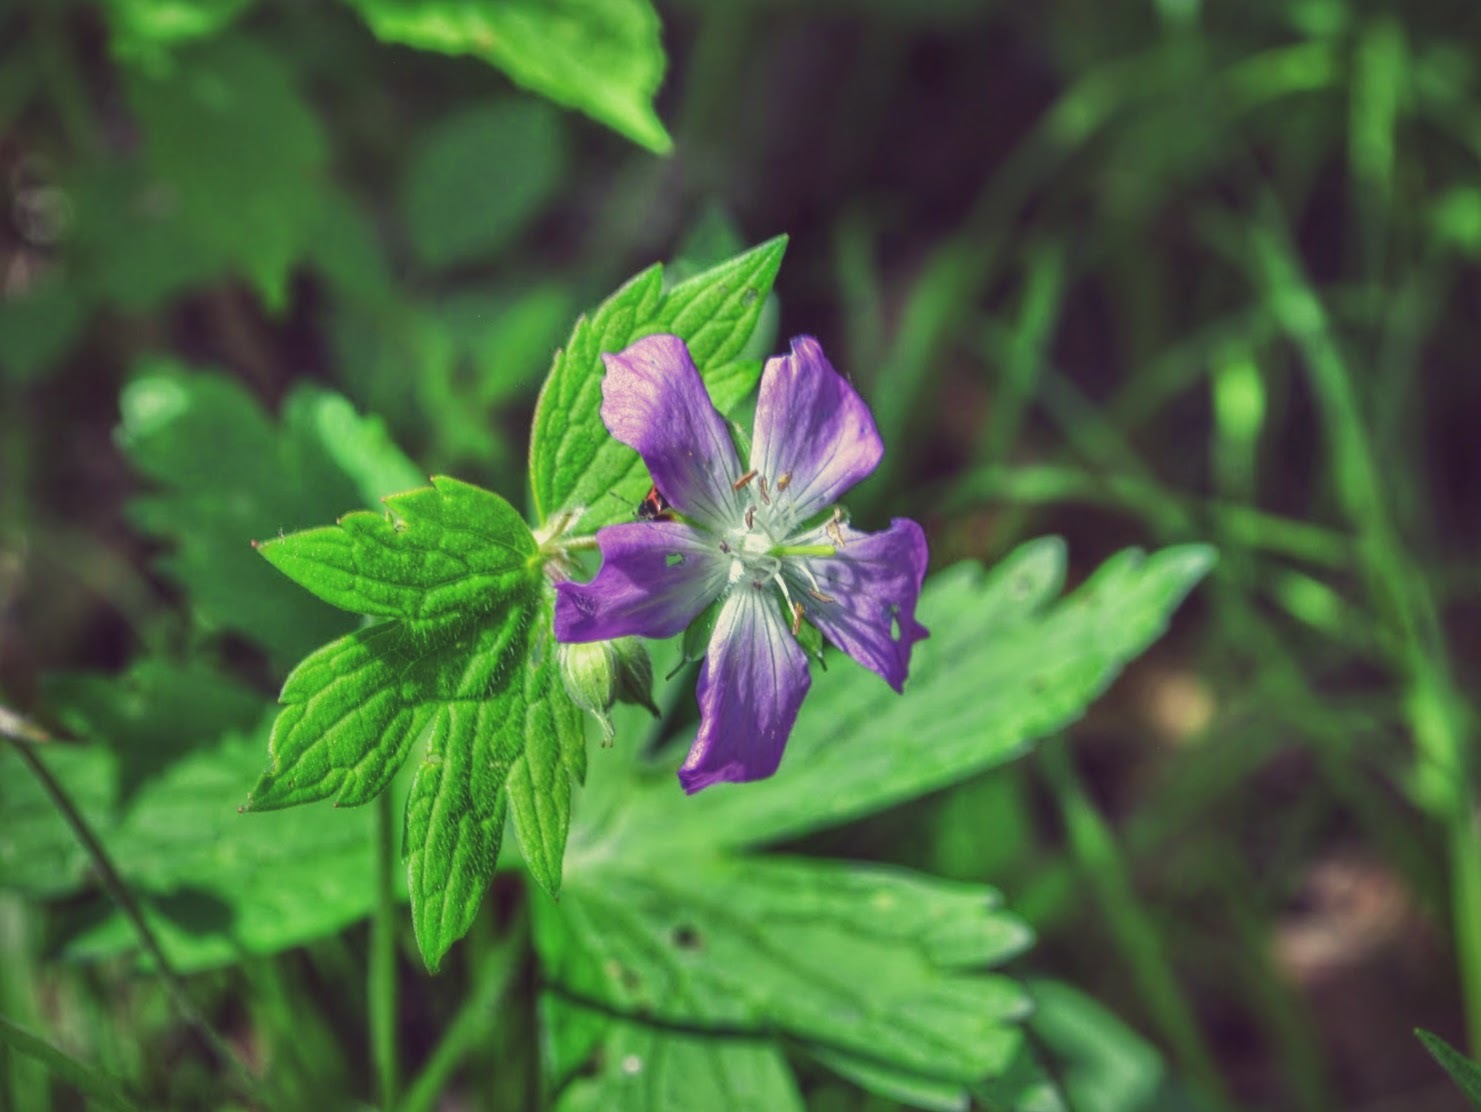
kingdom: Plantae
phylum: Tracheophyta
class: Magnoliopsida
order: Geraniales
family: Geraniaceae
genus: Geranium
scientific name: Geranium maculatum
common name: Spotted geranium
